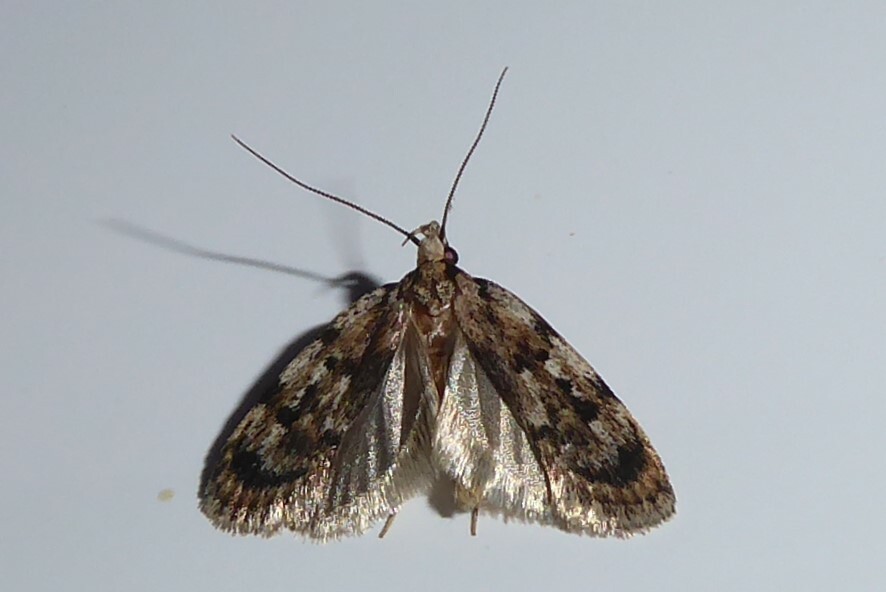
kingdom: Animalia
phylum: Arthropoda
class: Insecta
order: Lepidoptera
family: Oecophoridae
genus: Barea
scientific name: Barea exarcha
